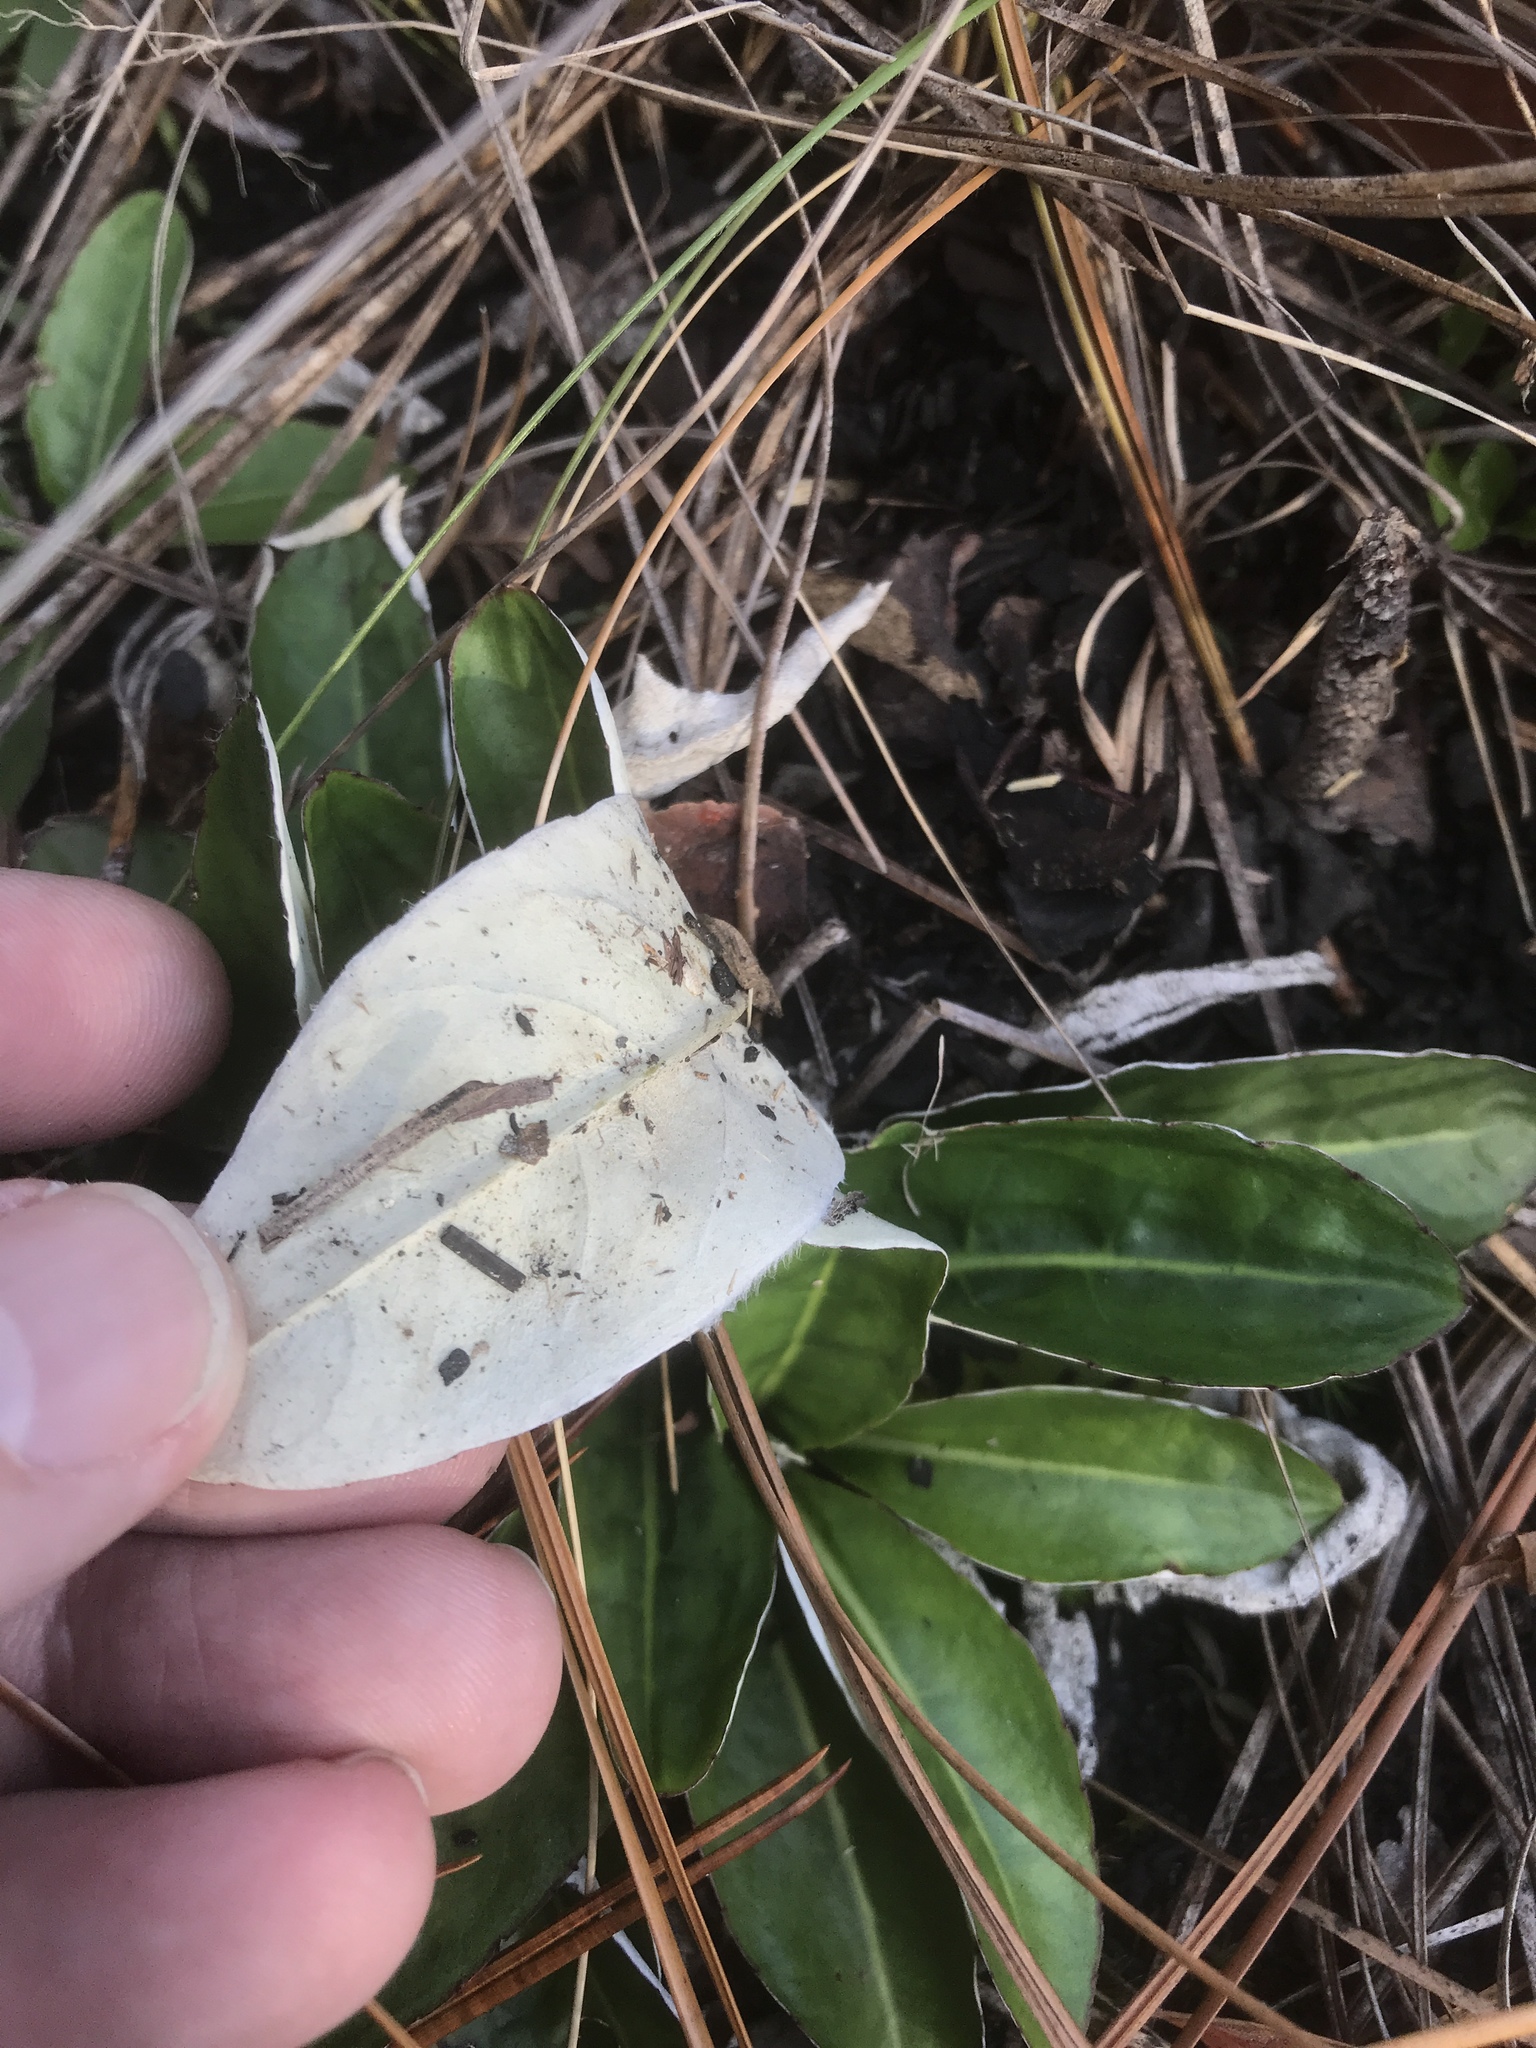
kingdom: Plantae
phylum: Tracheophyta
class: Magnoliopsida
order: Asterales
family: Asteraceae
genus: Chaptalia
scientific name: Chaptalia tomentosa
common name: Woolly sunbonnet
